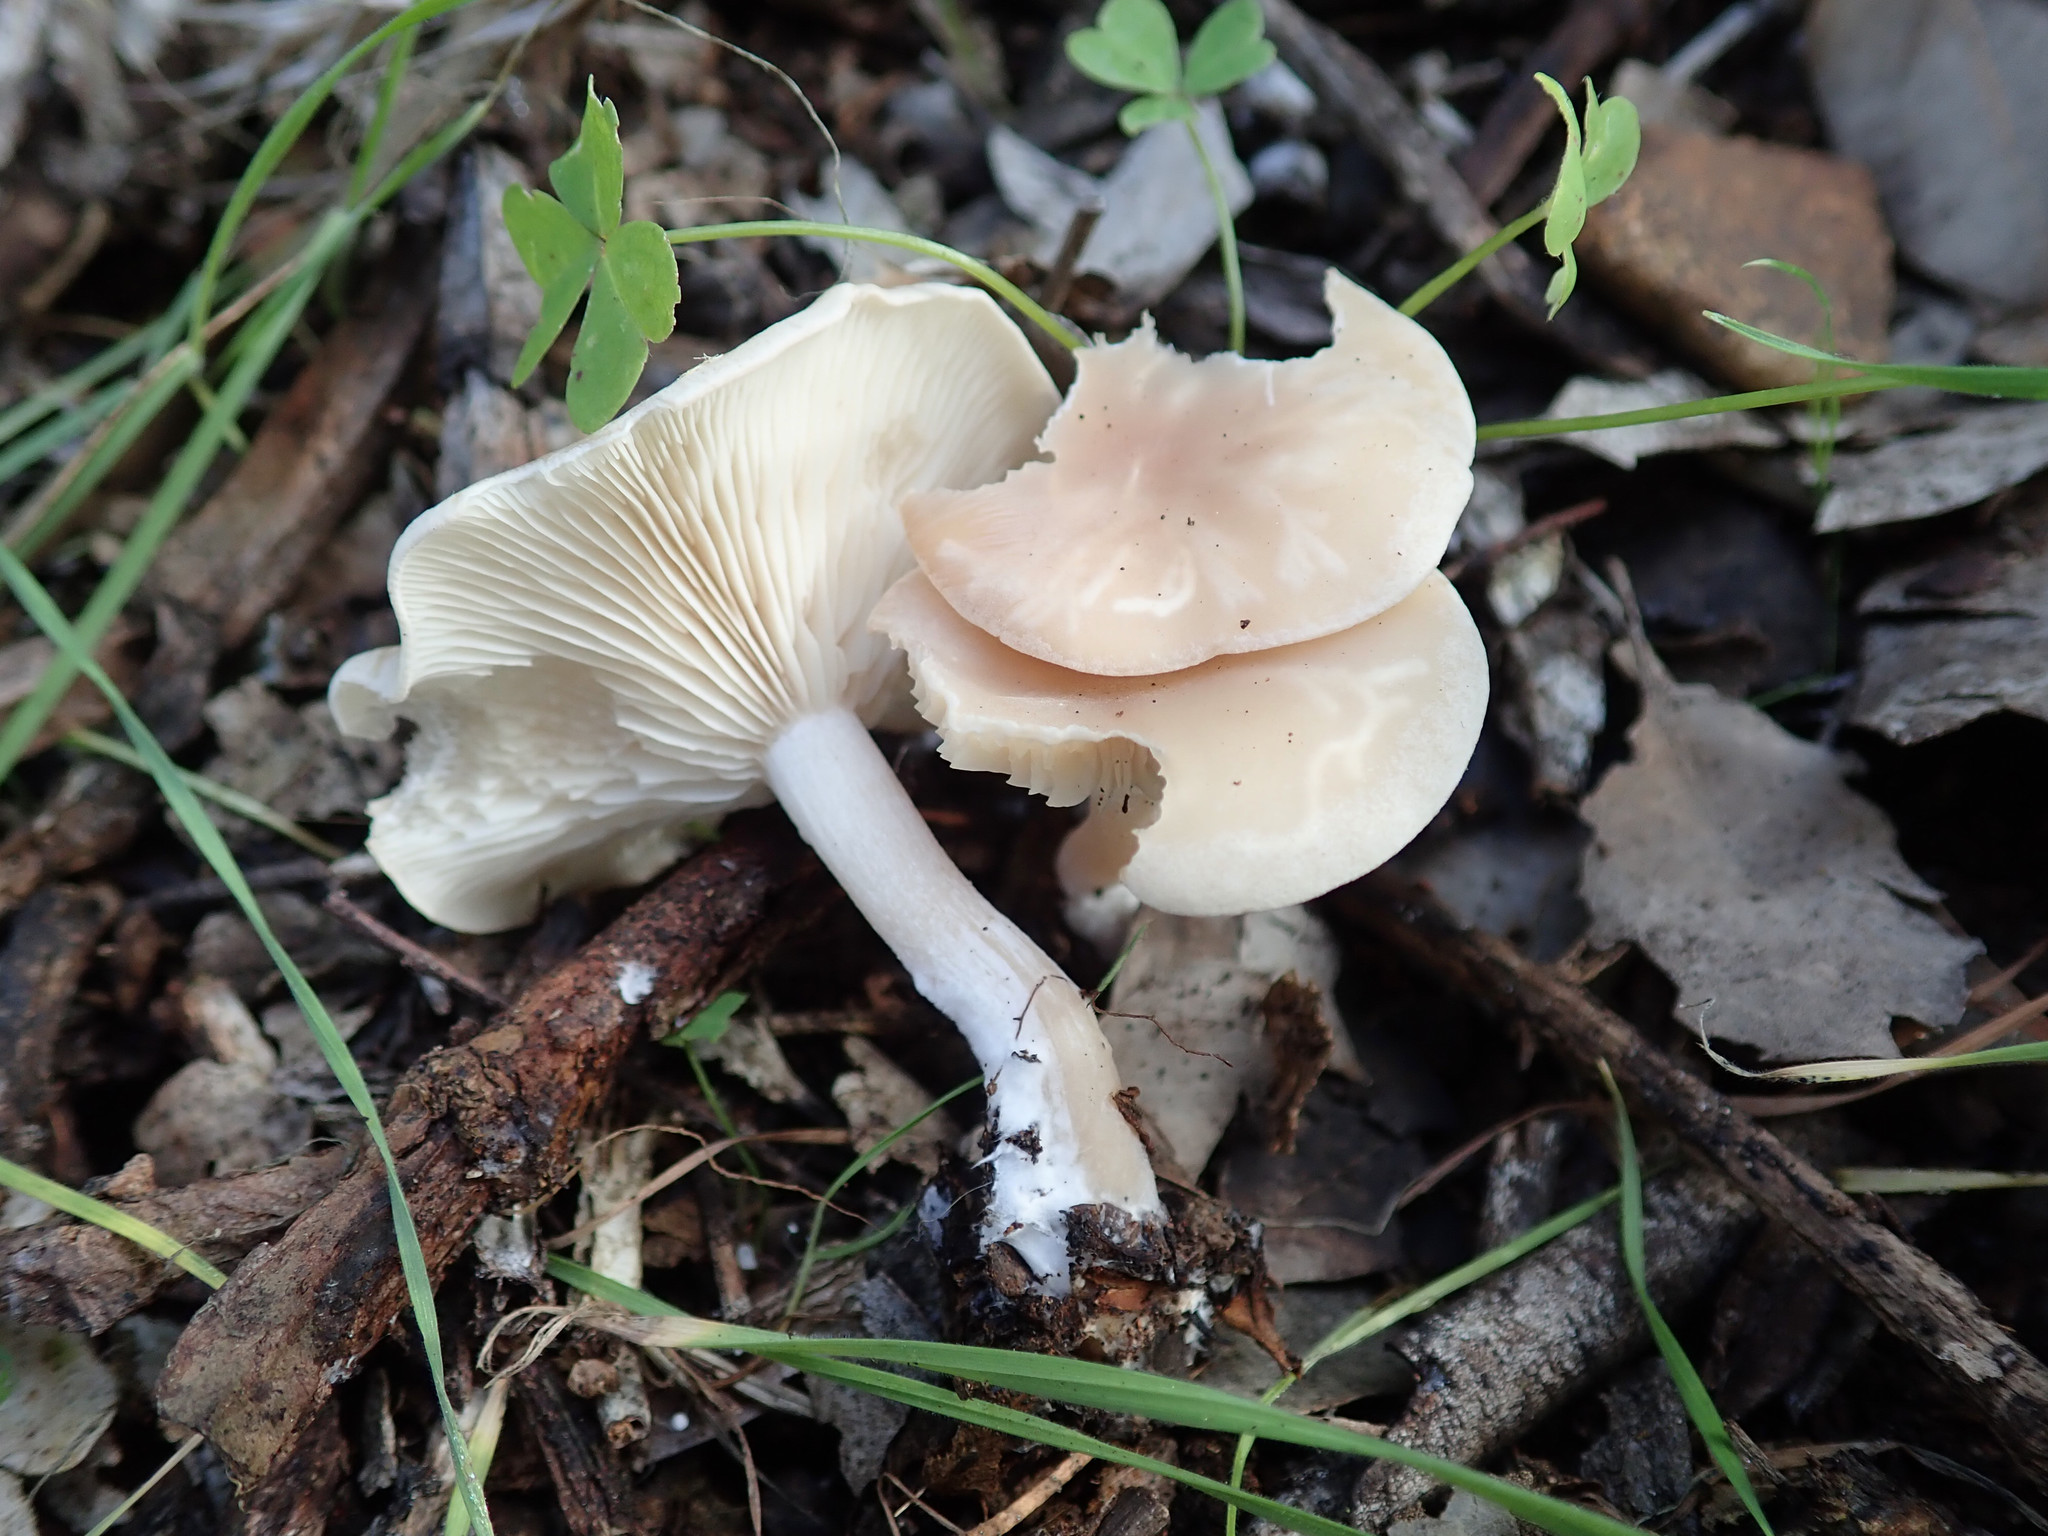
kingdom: Fungi
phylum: Basidiomycota
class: Agaricomycetes
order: Agaricales
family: Tricholomataceae
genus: Clitocybe
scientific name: Clitocybe fragrans
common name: Fragrant funnel
